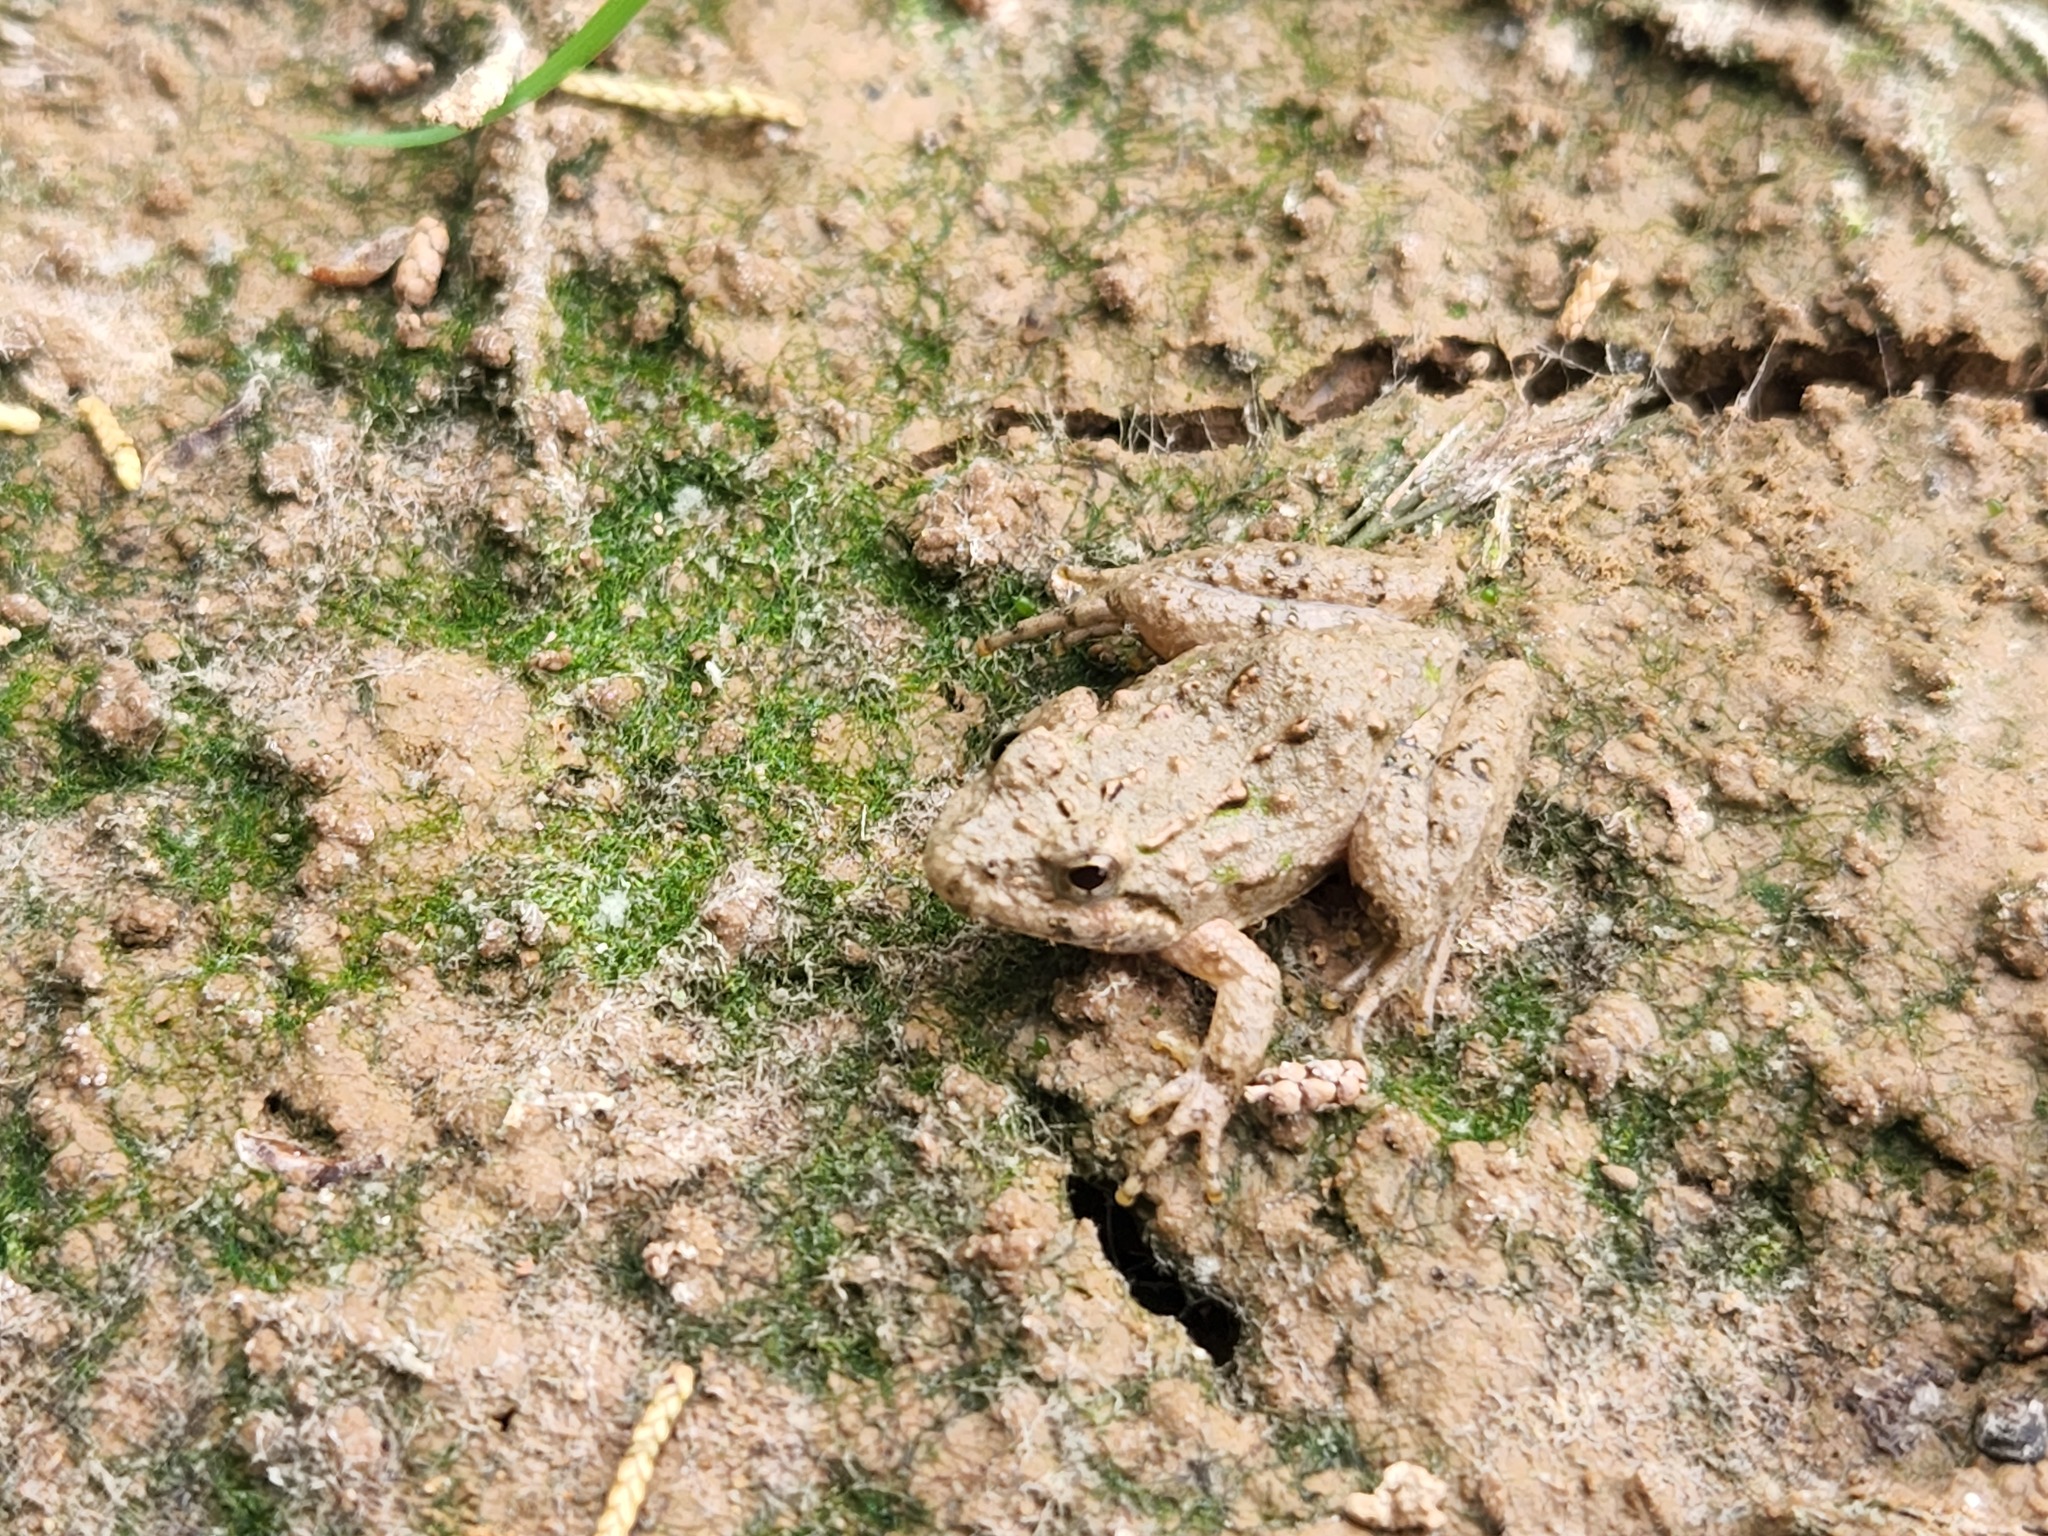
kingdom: Animalia
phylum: Chordata
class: Amphibia
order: Anura
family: Hylidae
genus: Acris
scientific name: Acris crepitans
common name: Northern cricket frog
